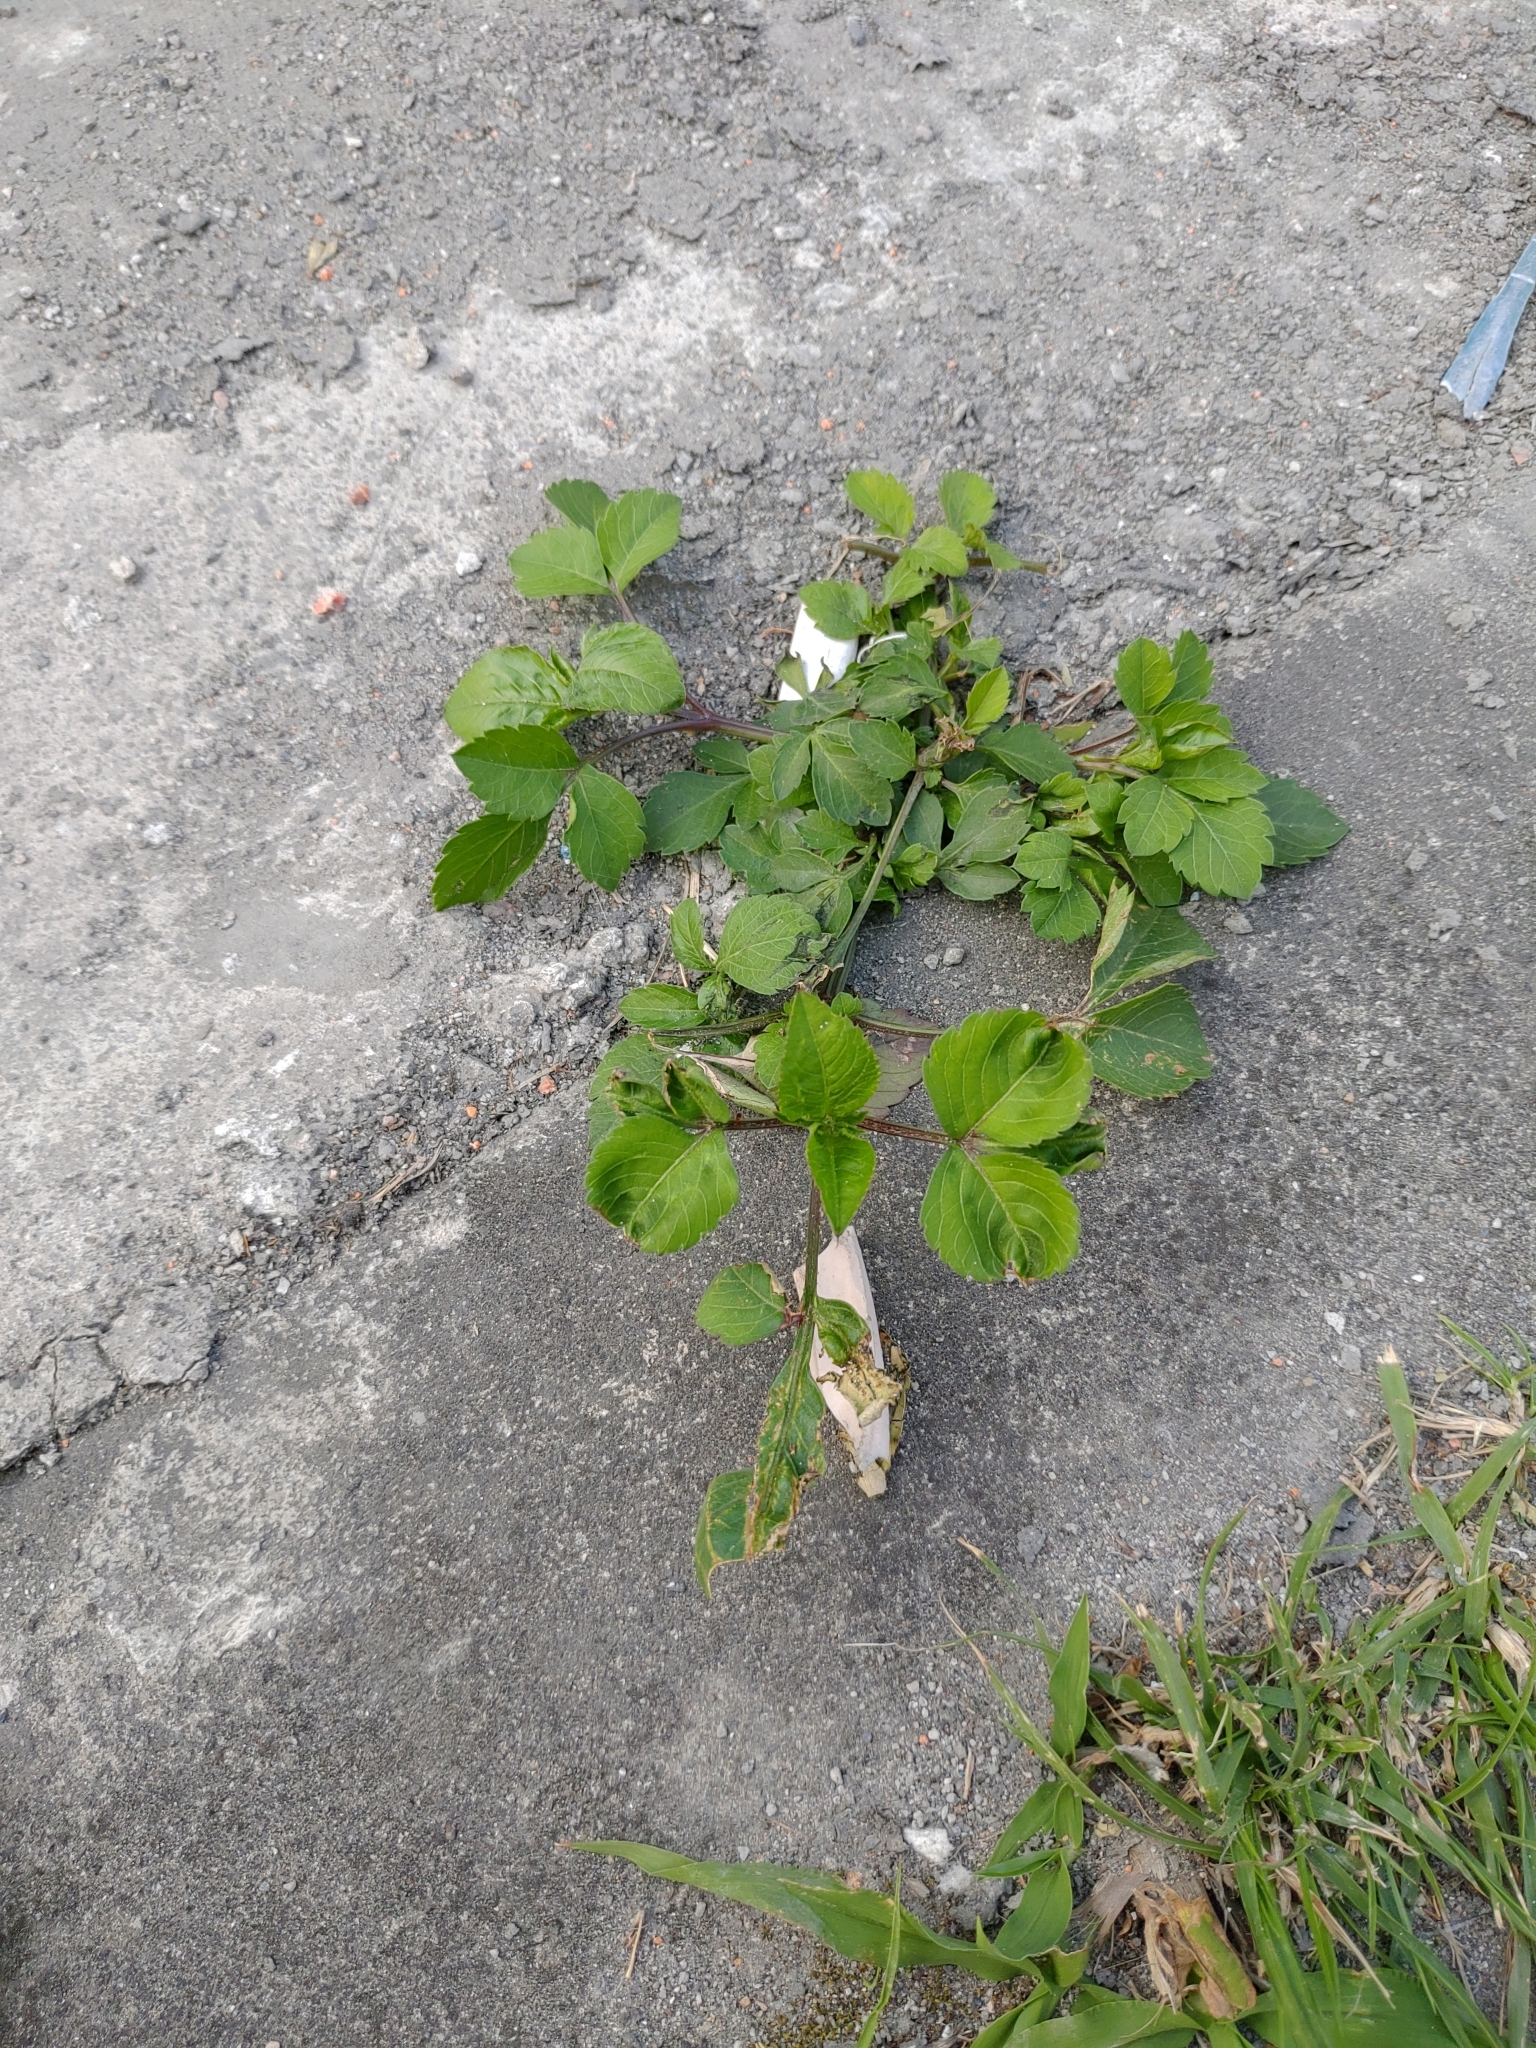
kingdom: Plantae
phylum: Tracheophyta
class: Magnoliopsida
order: Asterales
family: Asteraceae
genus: Bidens
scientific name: Bidens alba
